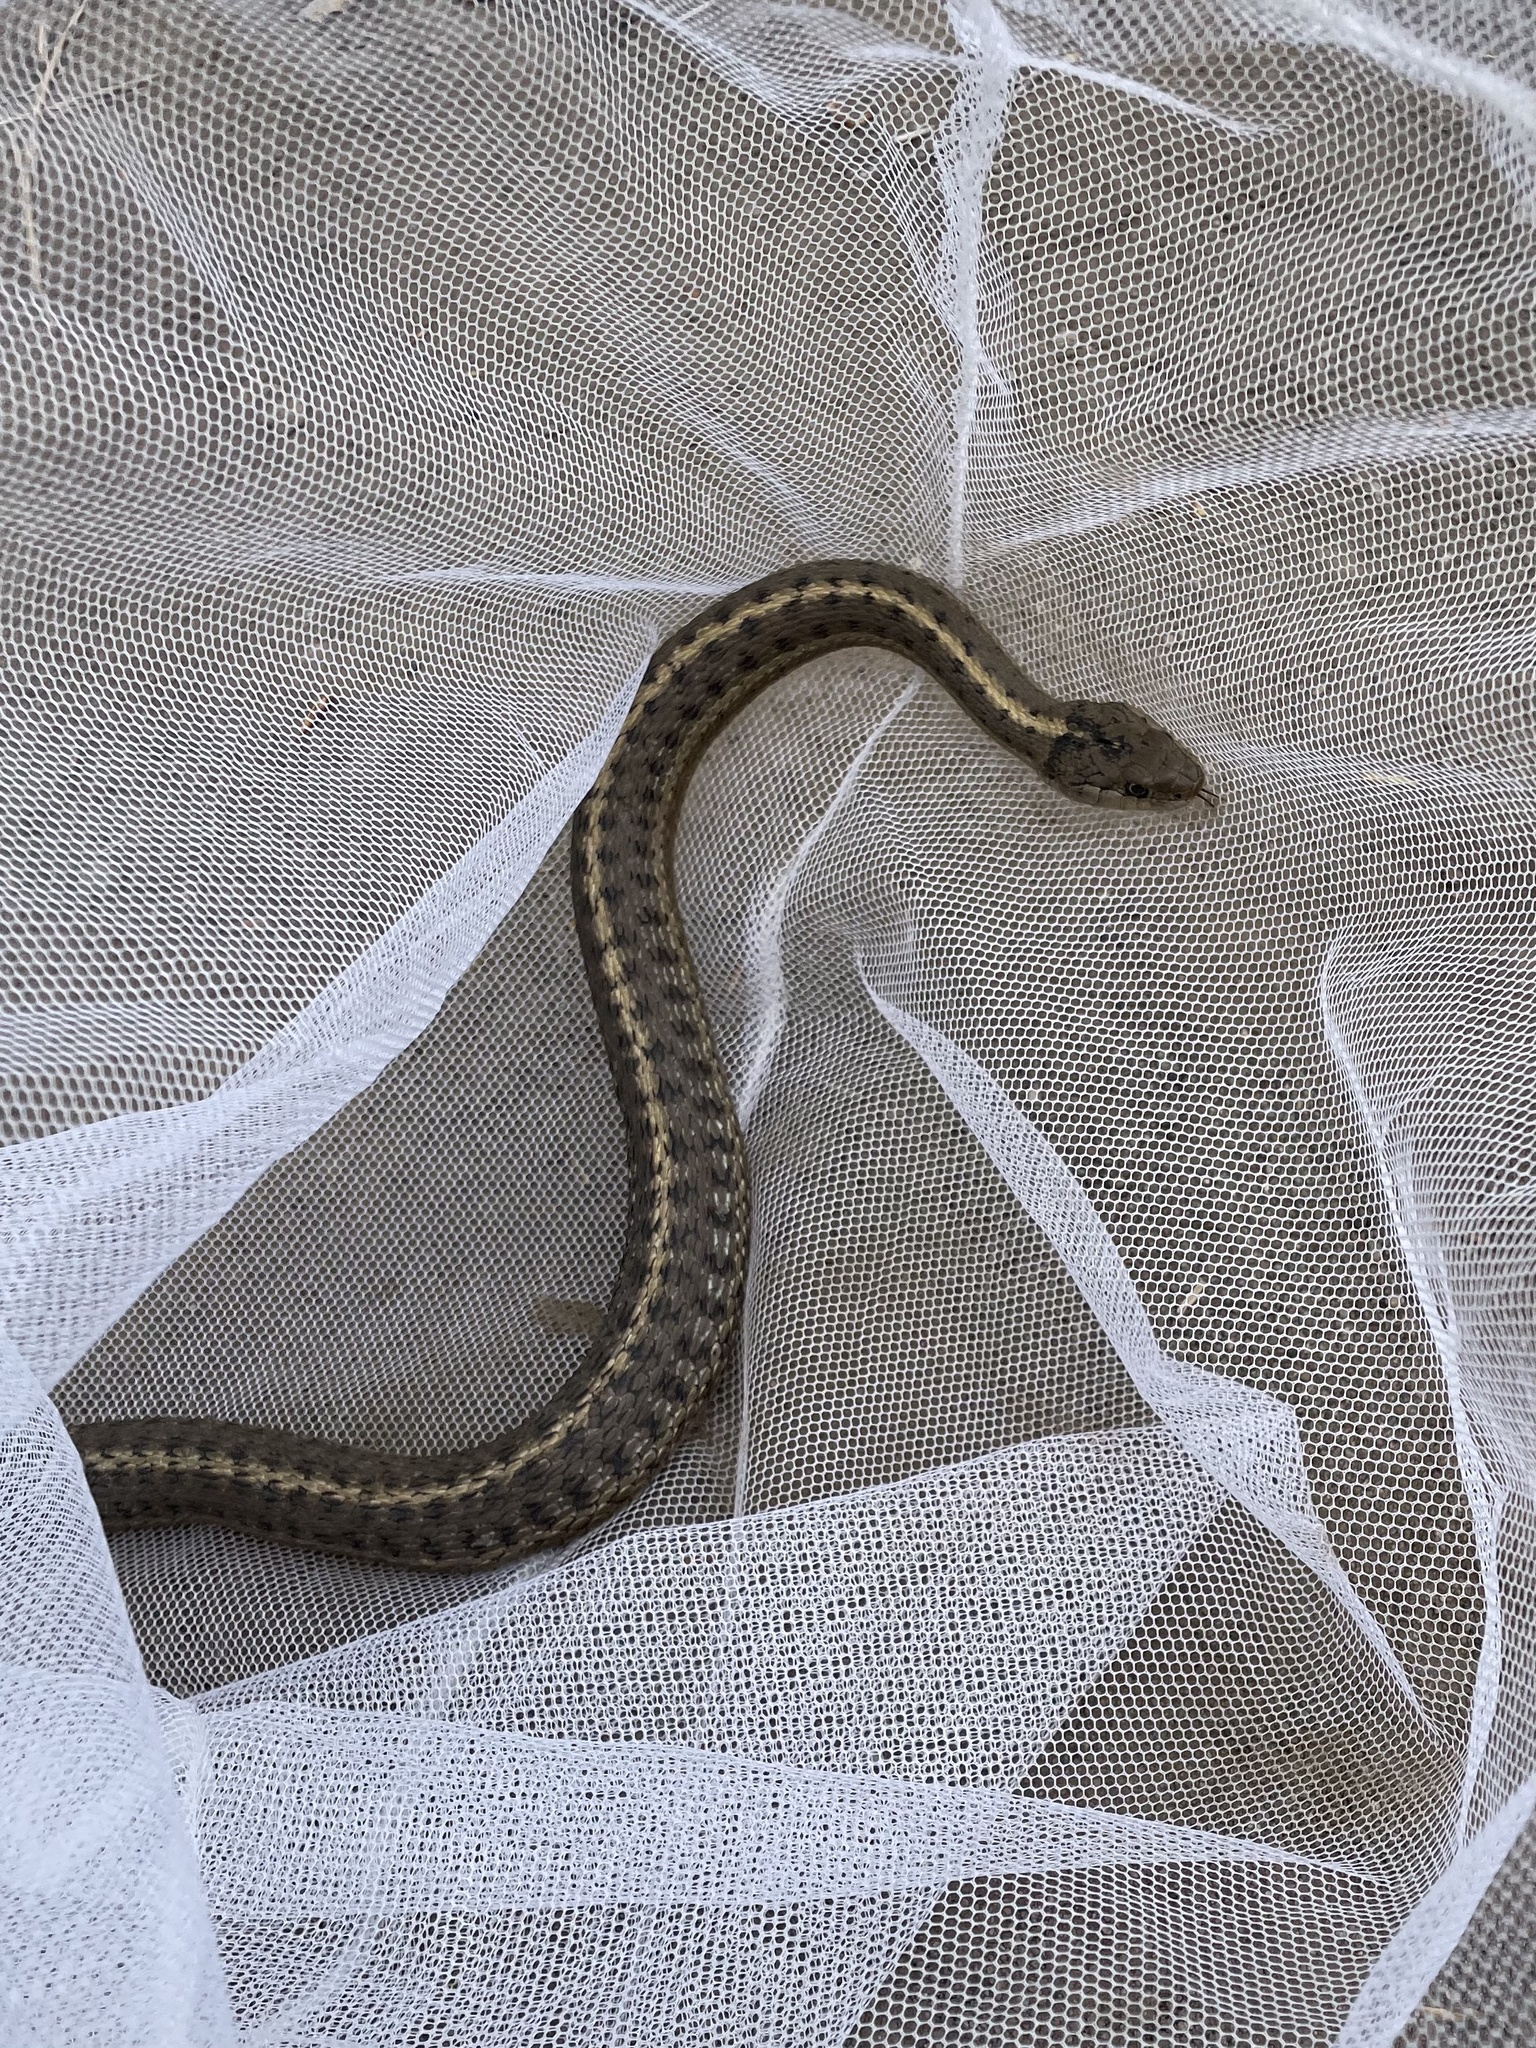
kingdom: Animalia
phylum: Chordata
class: Squamata
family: Colubridae
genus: Thamnophis
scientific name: Thamnophis elegans
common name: Western terrestrial garter snake
